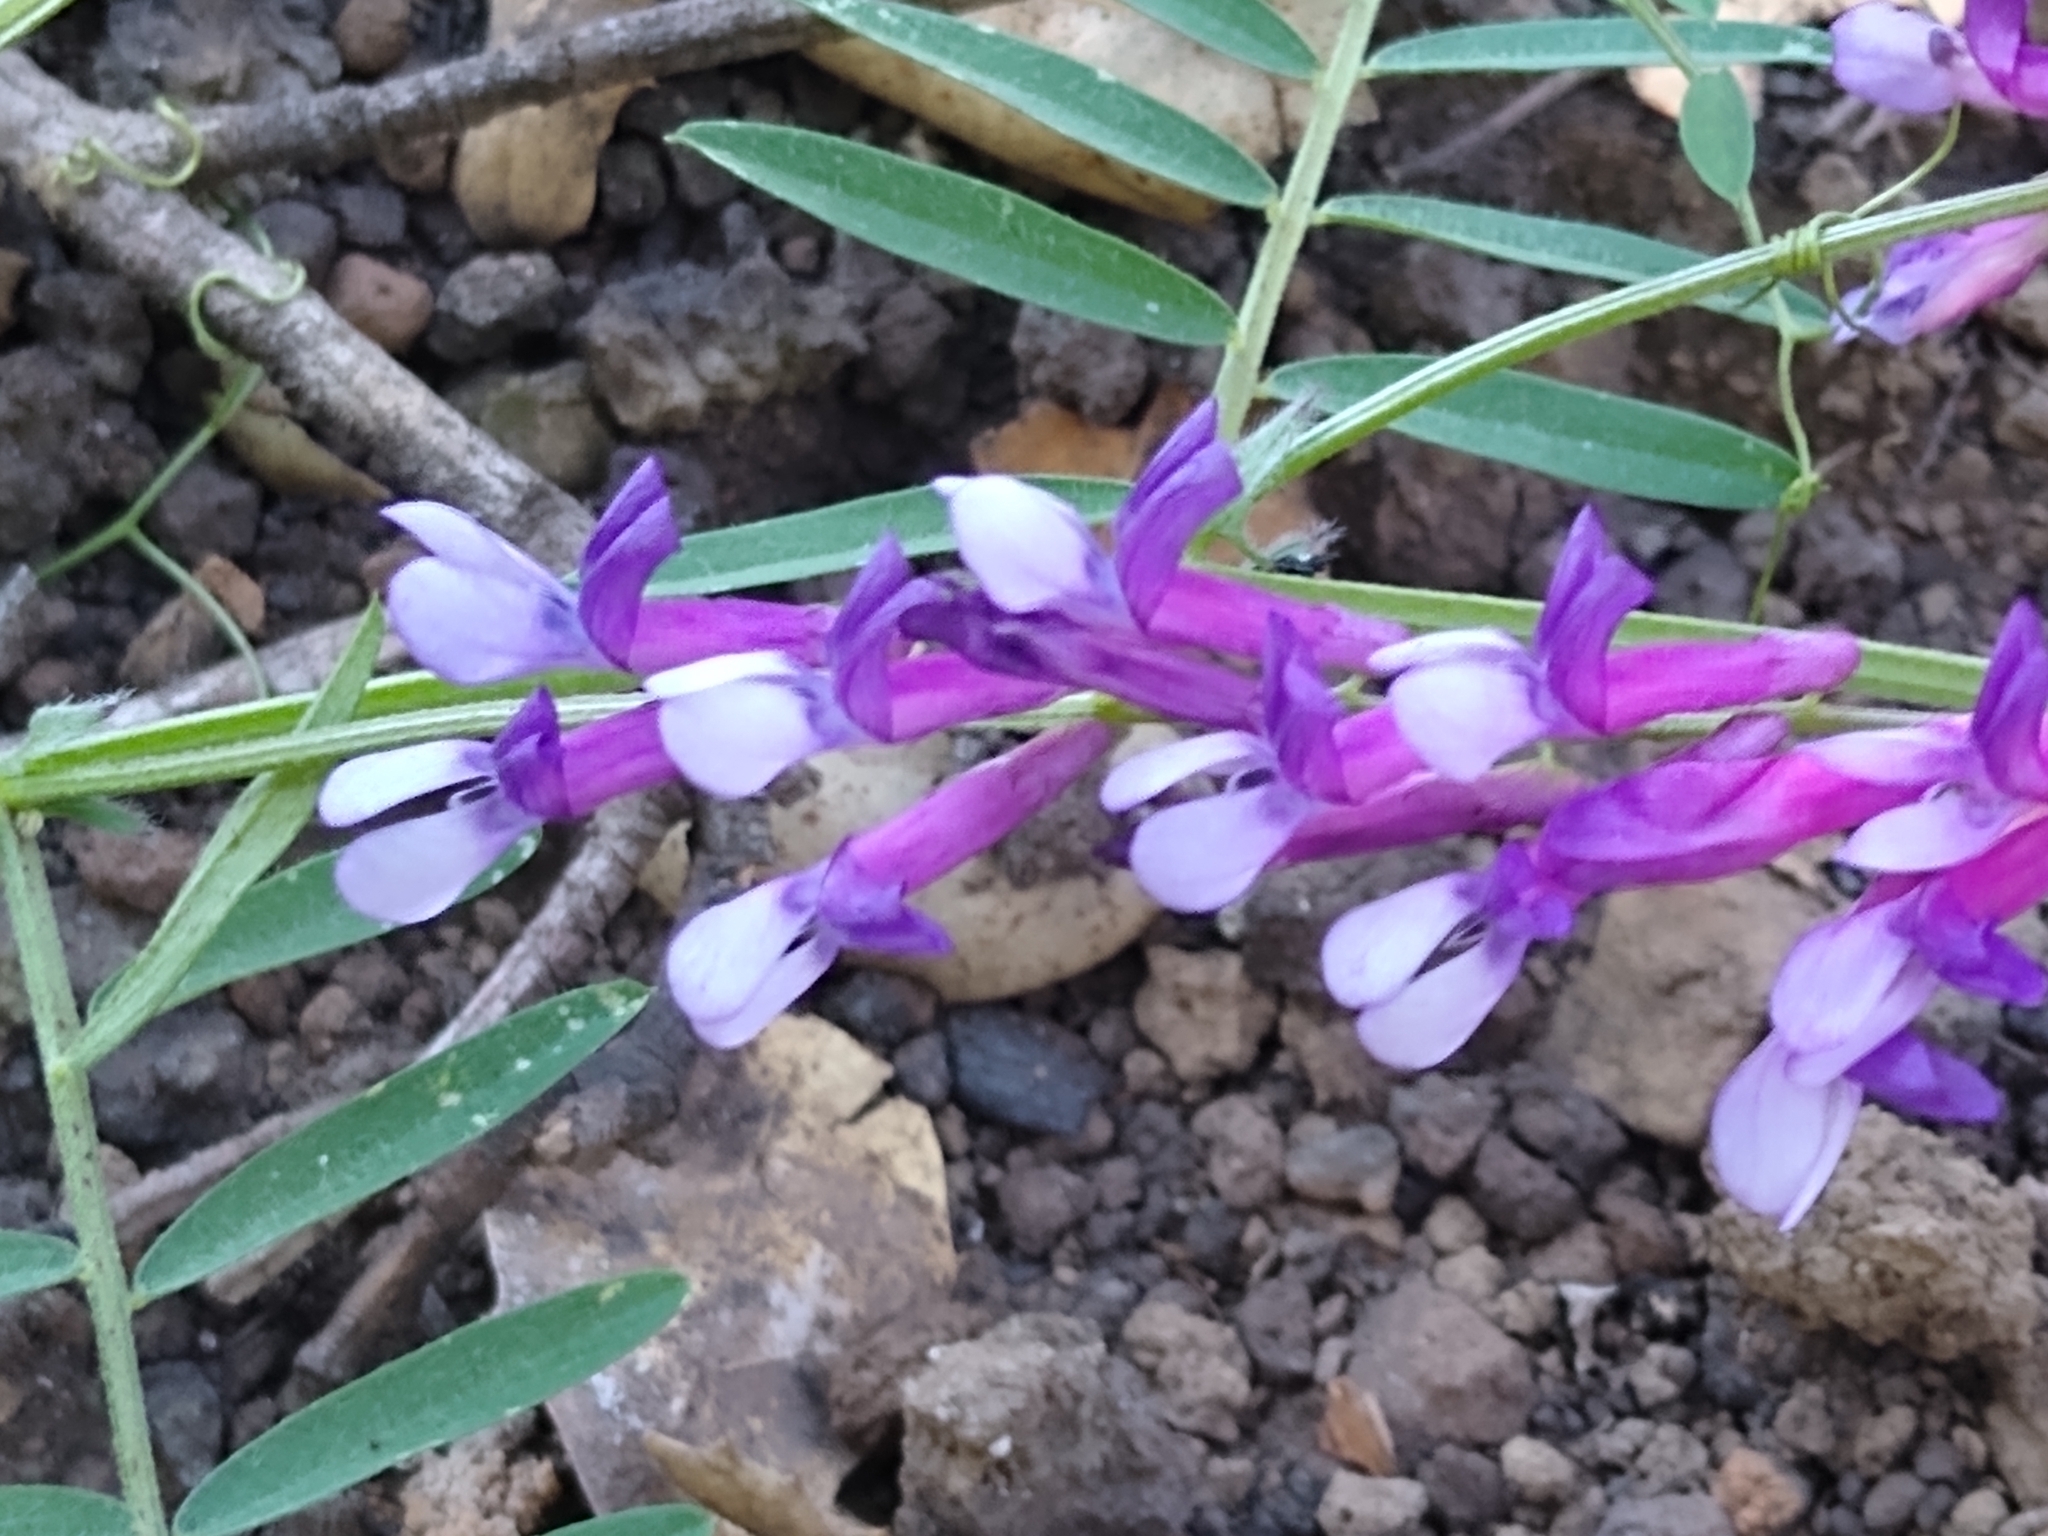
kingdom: Plantae
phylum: Tracheophyta
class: Magnoliopsida
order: Fabales
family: Fabaceae
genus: Vicia
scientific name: Vicia villosa
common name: Fodder vetch
